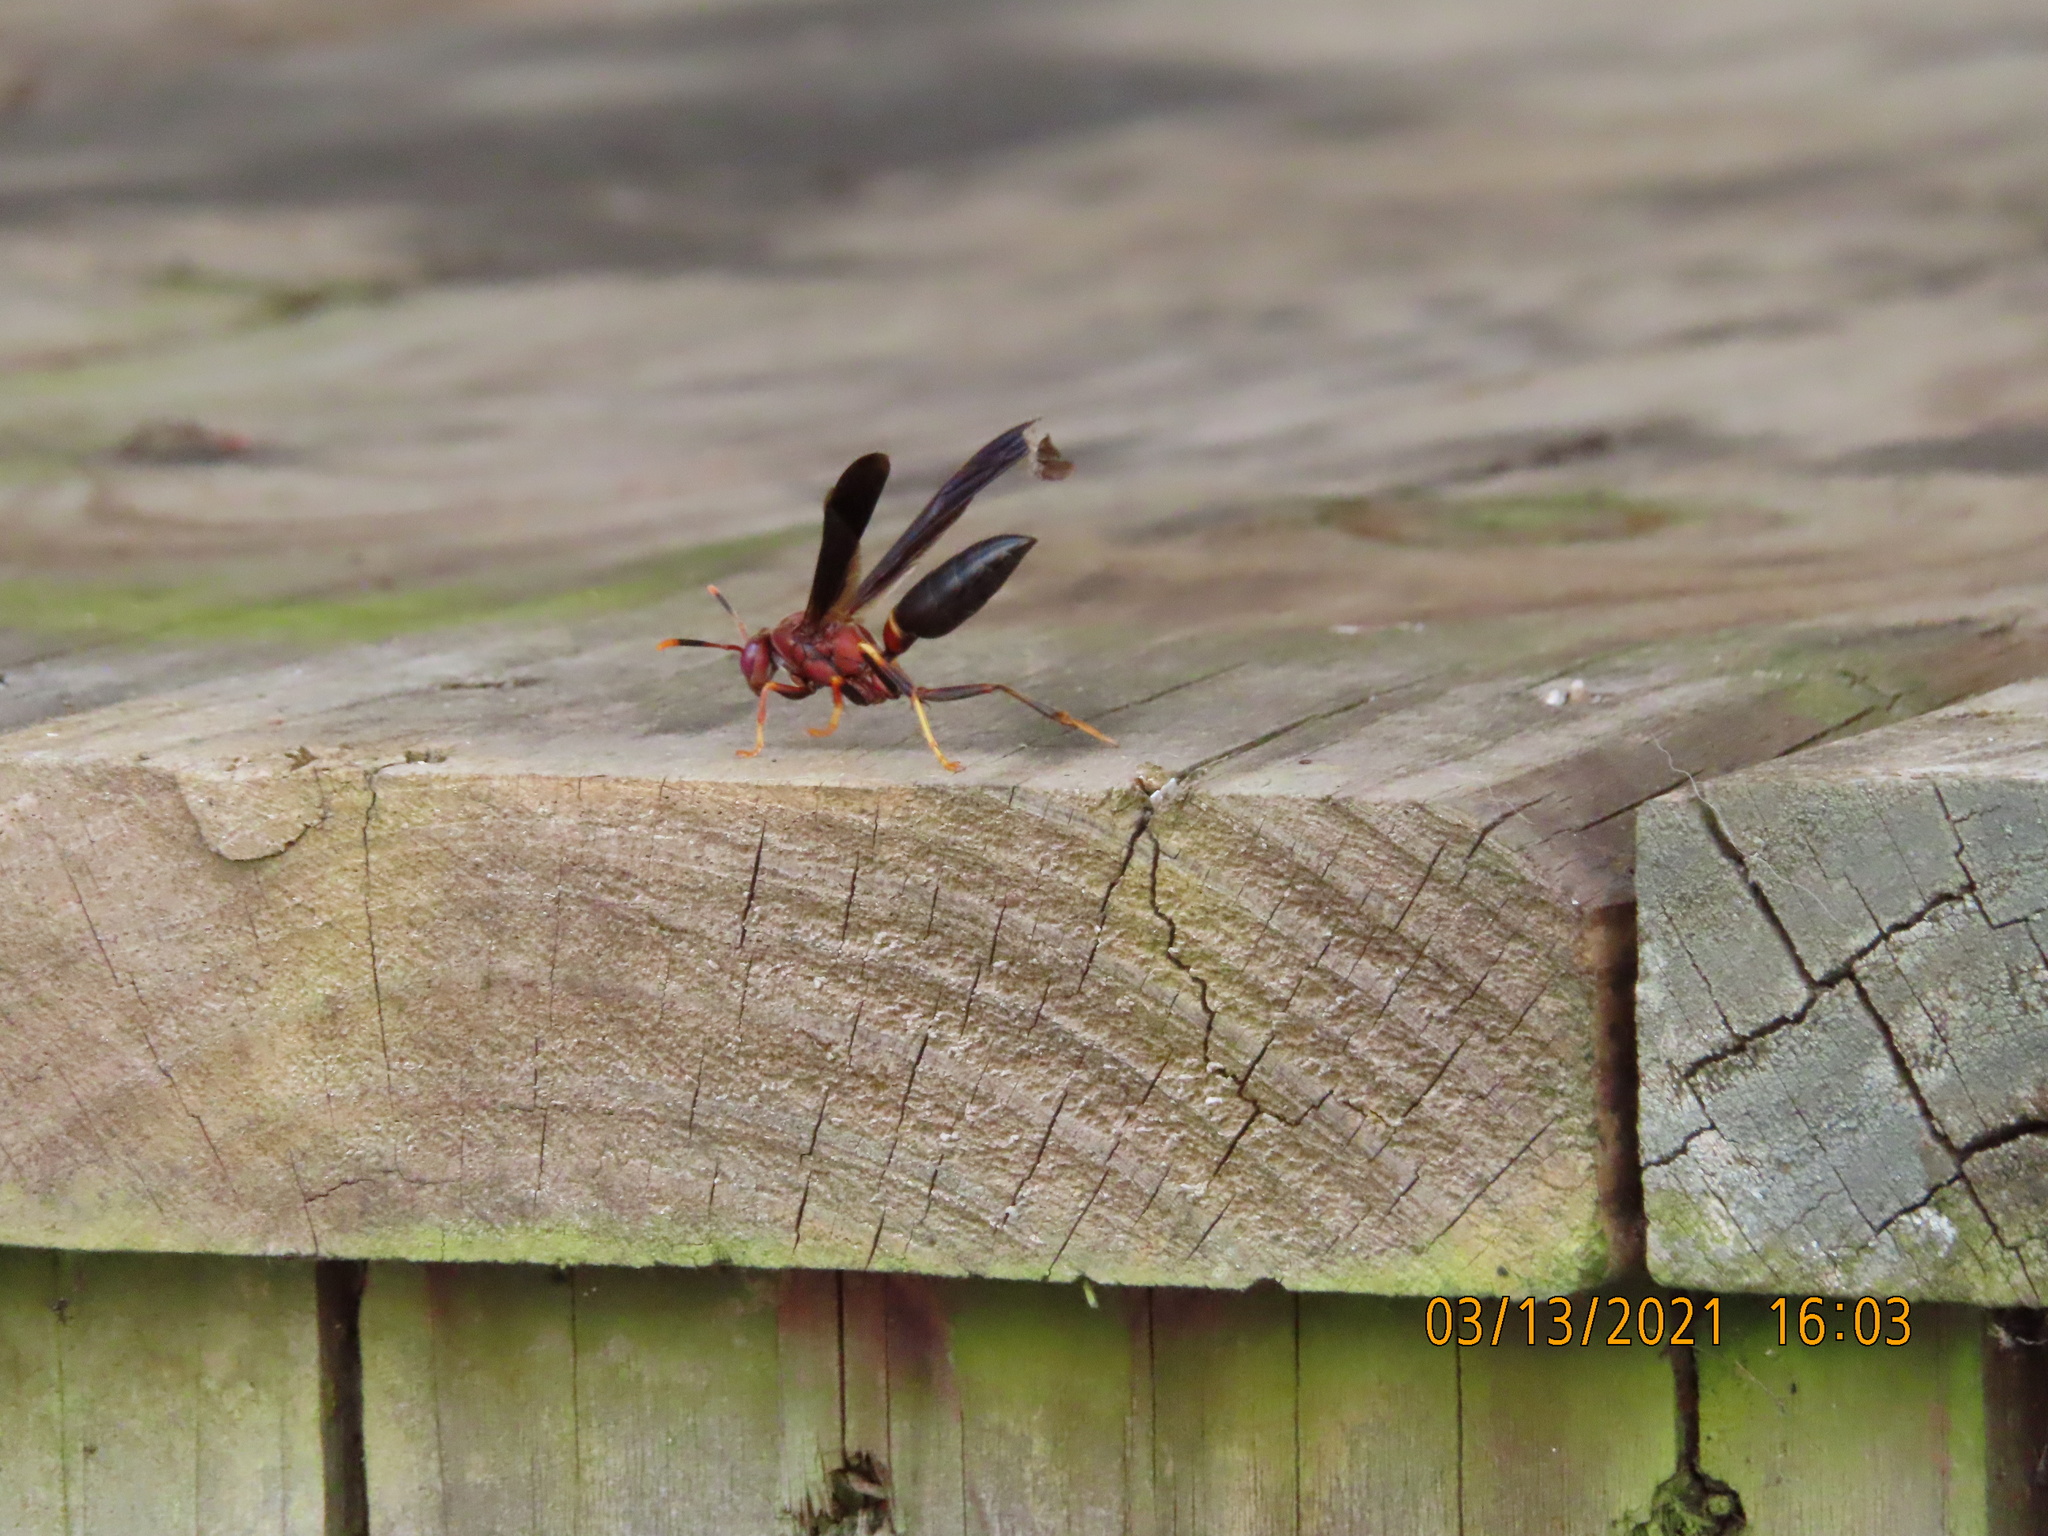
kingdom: Animalia
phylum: Arthropoda
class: Insecta
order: Hymenoptera
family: Eumenidae
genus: Polistes
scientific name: Polistes annularis
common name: Ringed paper wasp
